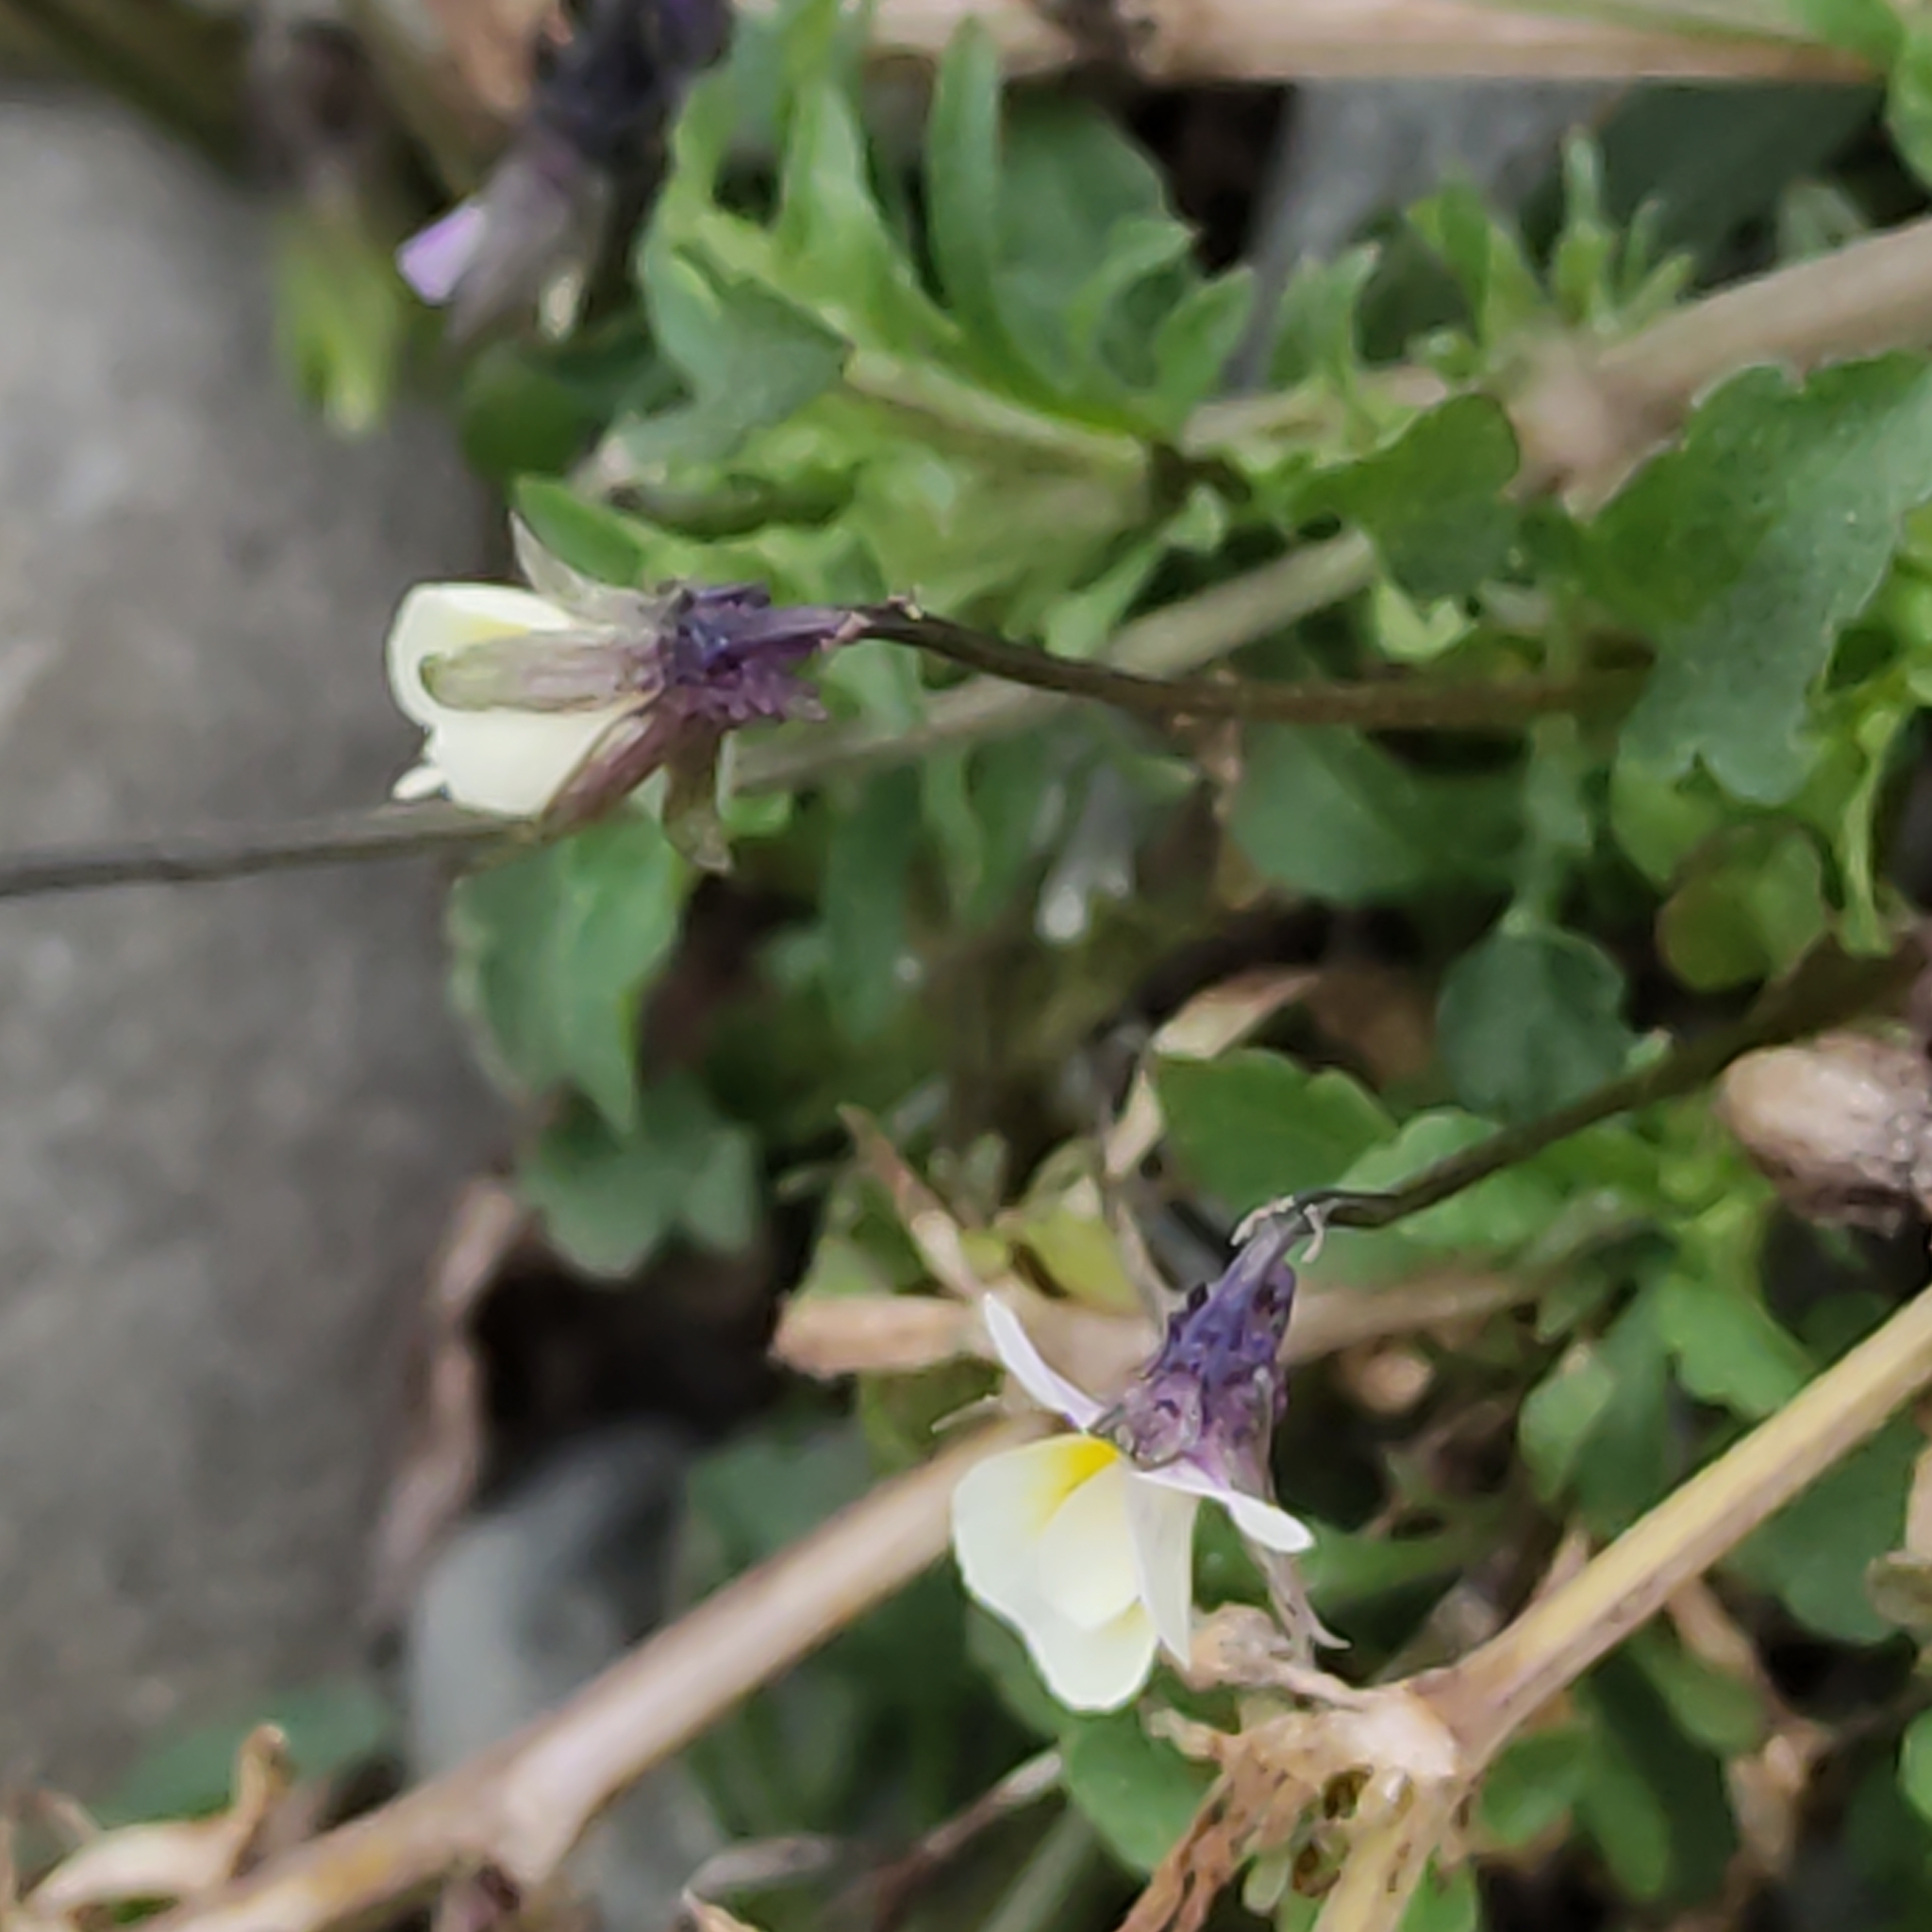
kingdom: Plantae
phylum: Tracheophyta
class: Magnoliopsida
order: Malpighiales
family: Violaceae
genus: Viola
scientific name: Viola arvensis
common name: Field pansy
